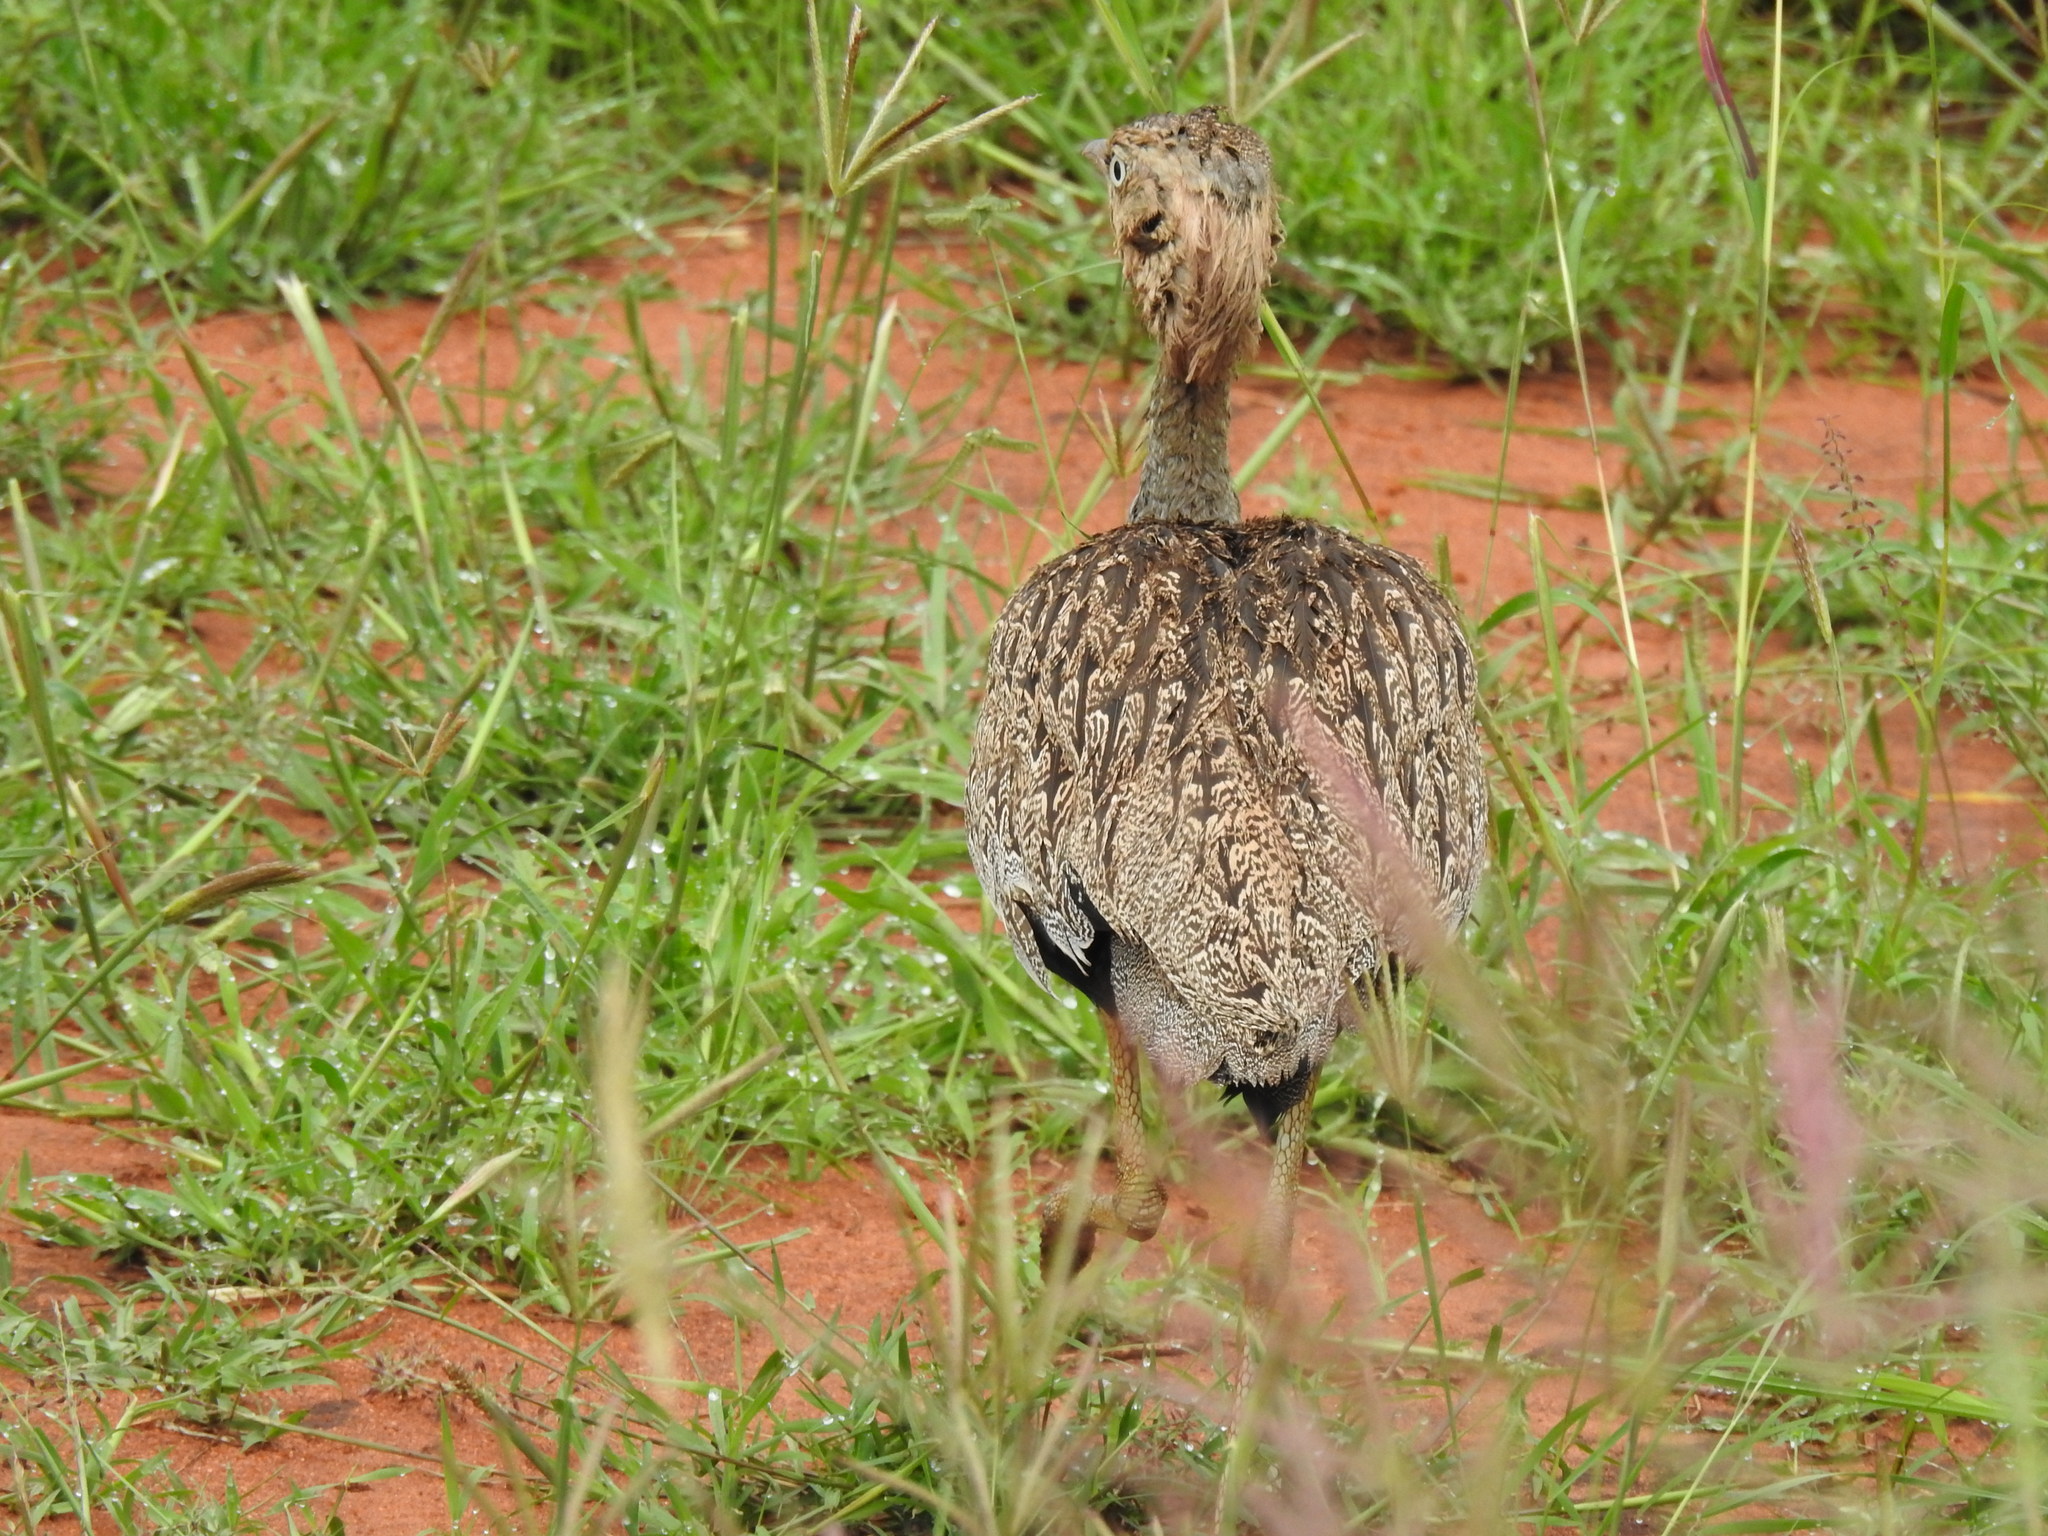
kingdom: Animalia
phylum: Chordata
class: Aves
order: Otidiformes
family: Otididae
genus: Lophotis
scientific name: Lophotis gindiana
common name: Buff-crested bustard
